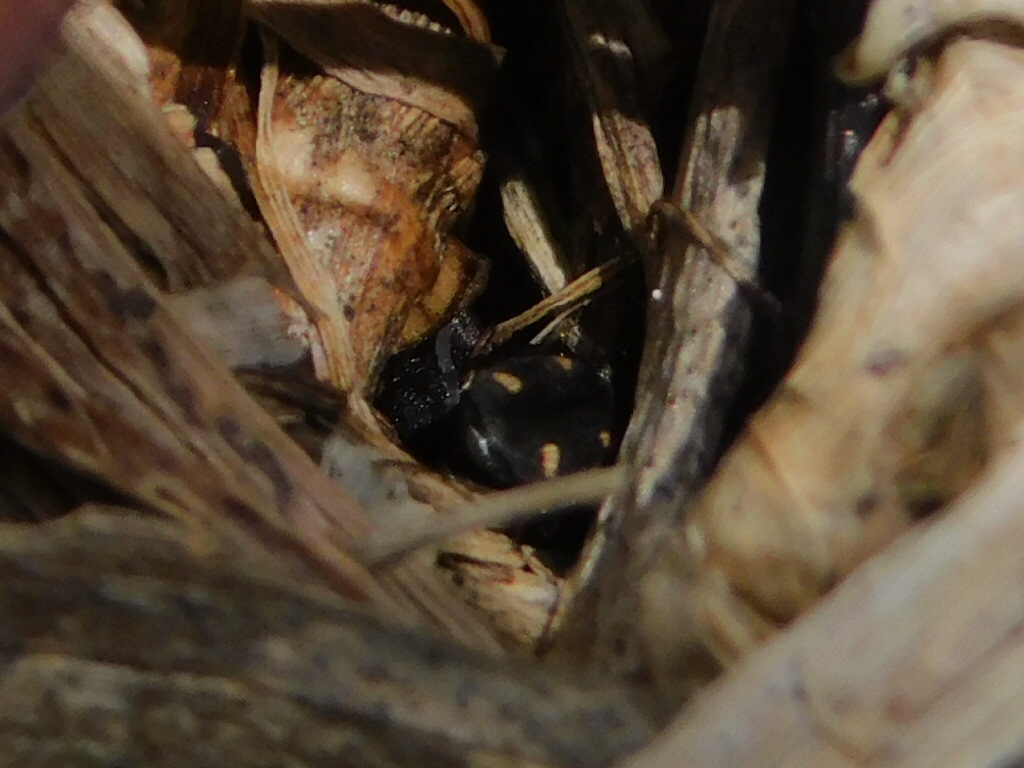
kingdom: Animalia
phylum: Arthropoda
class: Insecta
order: Coleoptera
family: Carabidae
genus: Tetragonoderus
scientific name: Tetragonoderus laevigatus
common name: Ground beetle
